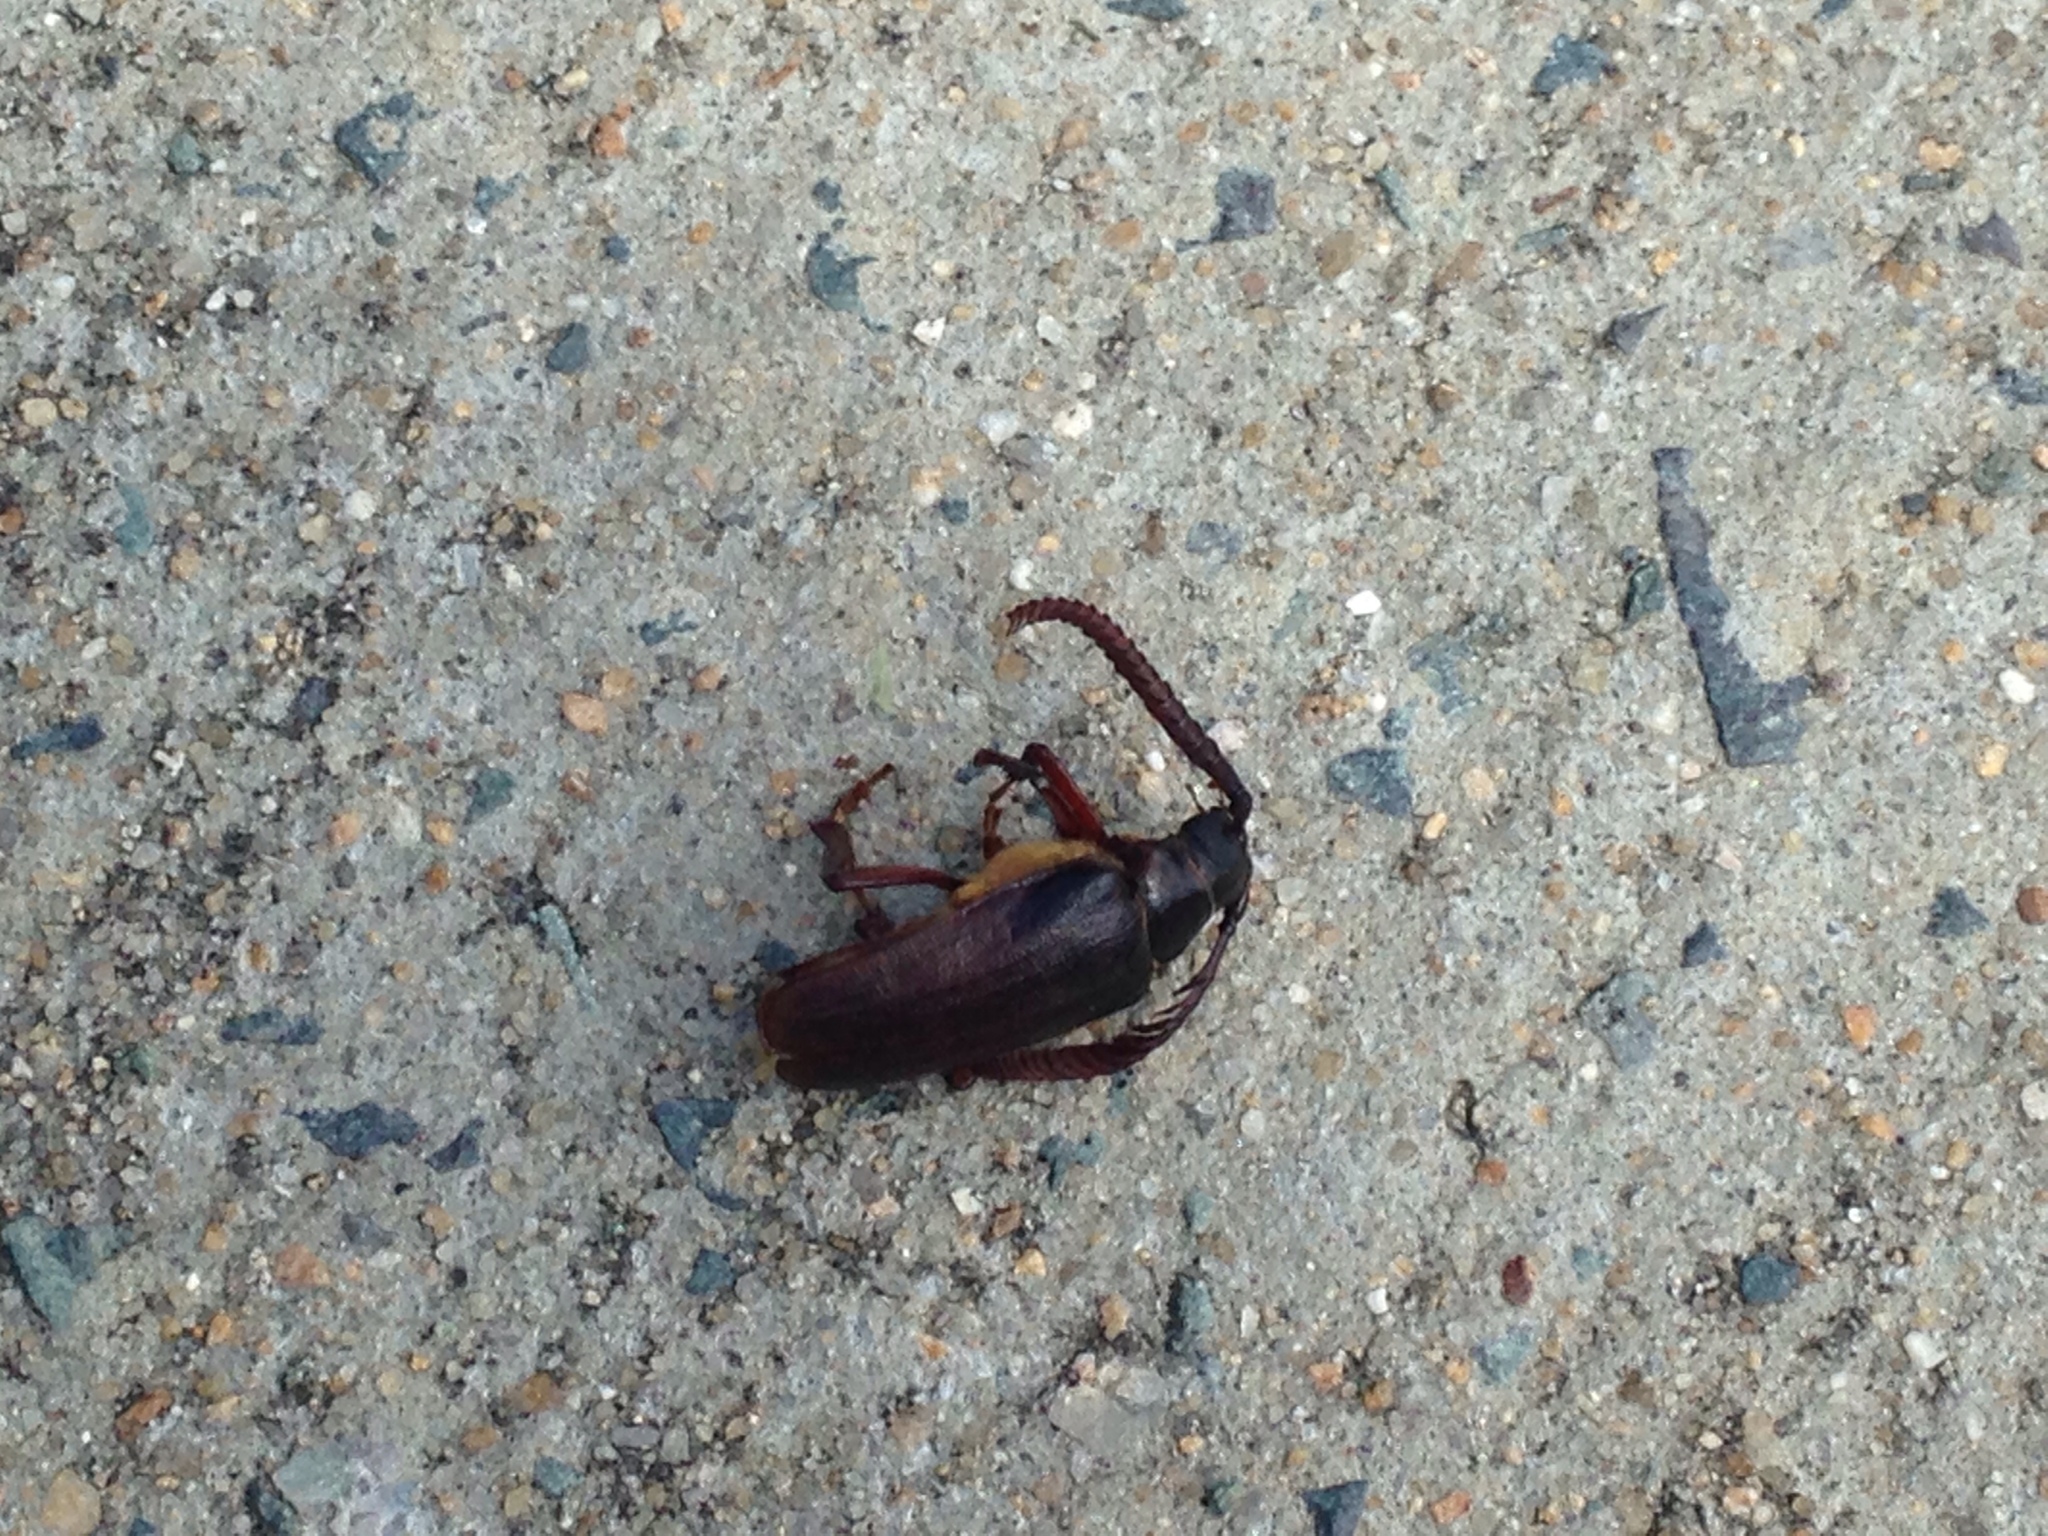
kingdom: Animalia
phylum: Arthropoda
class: Insecta
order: Coleoptera
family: Cerambycidae
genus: Prionus
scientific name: Prionus imbricornis
